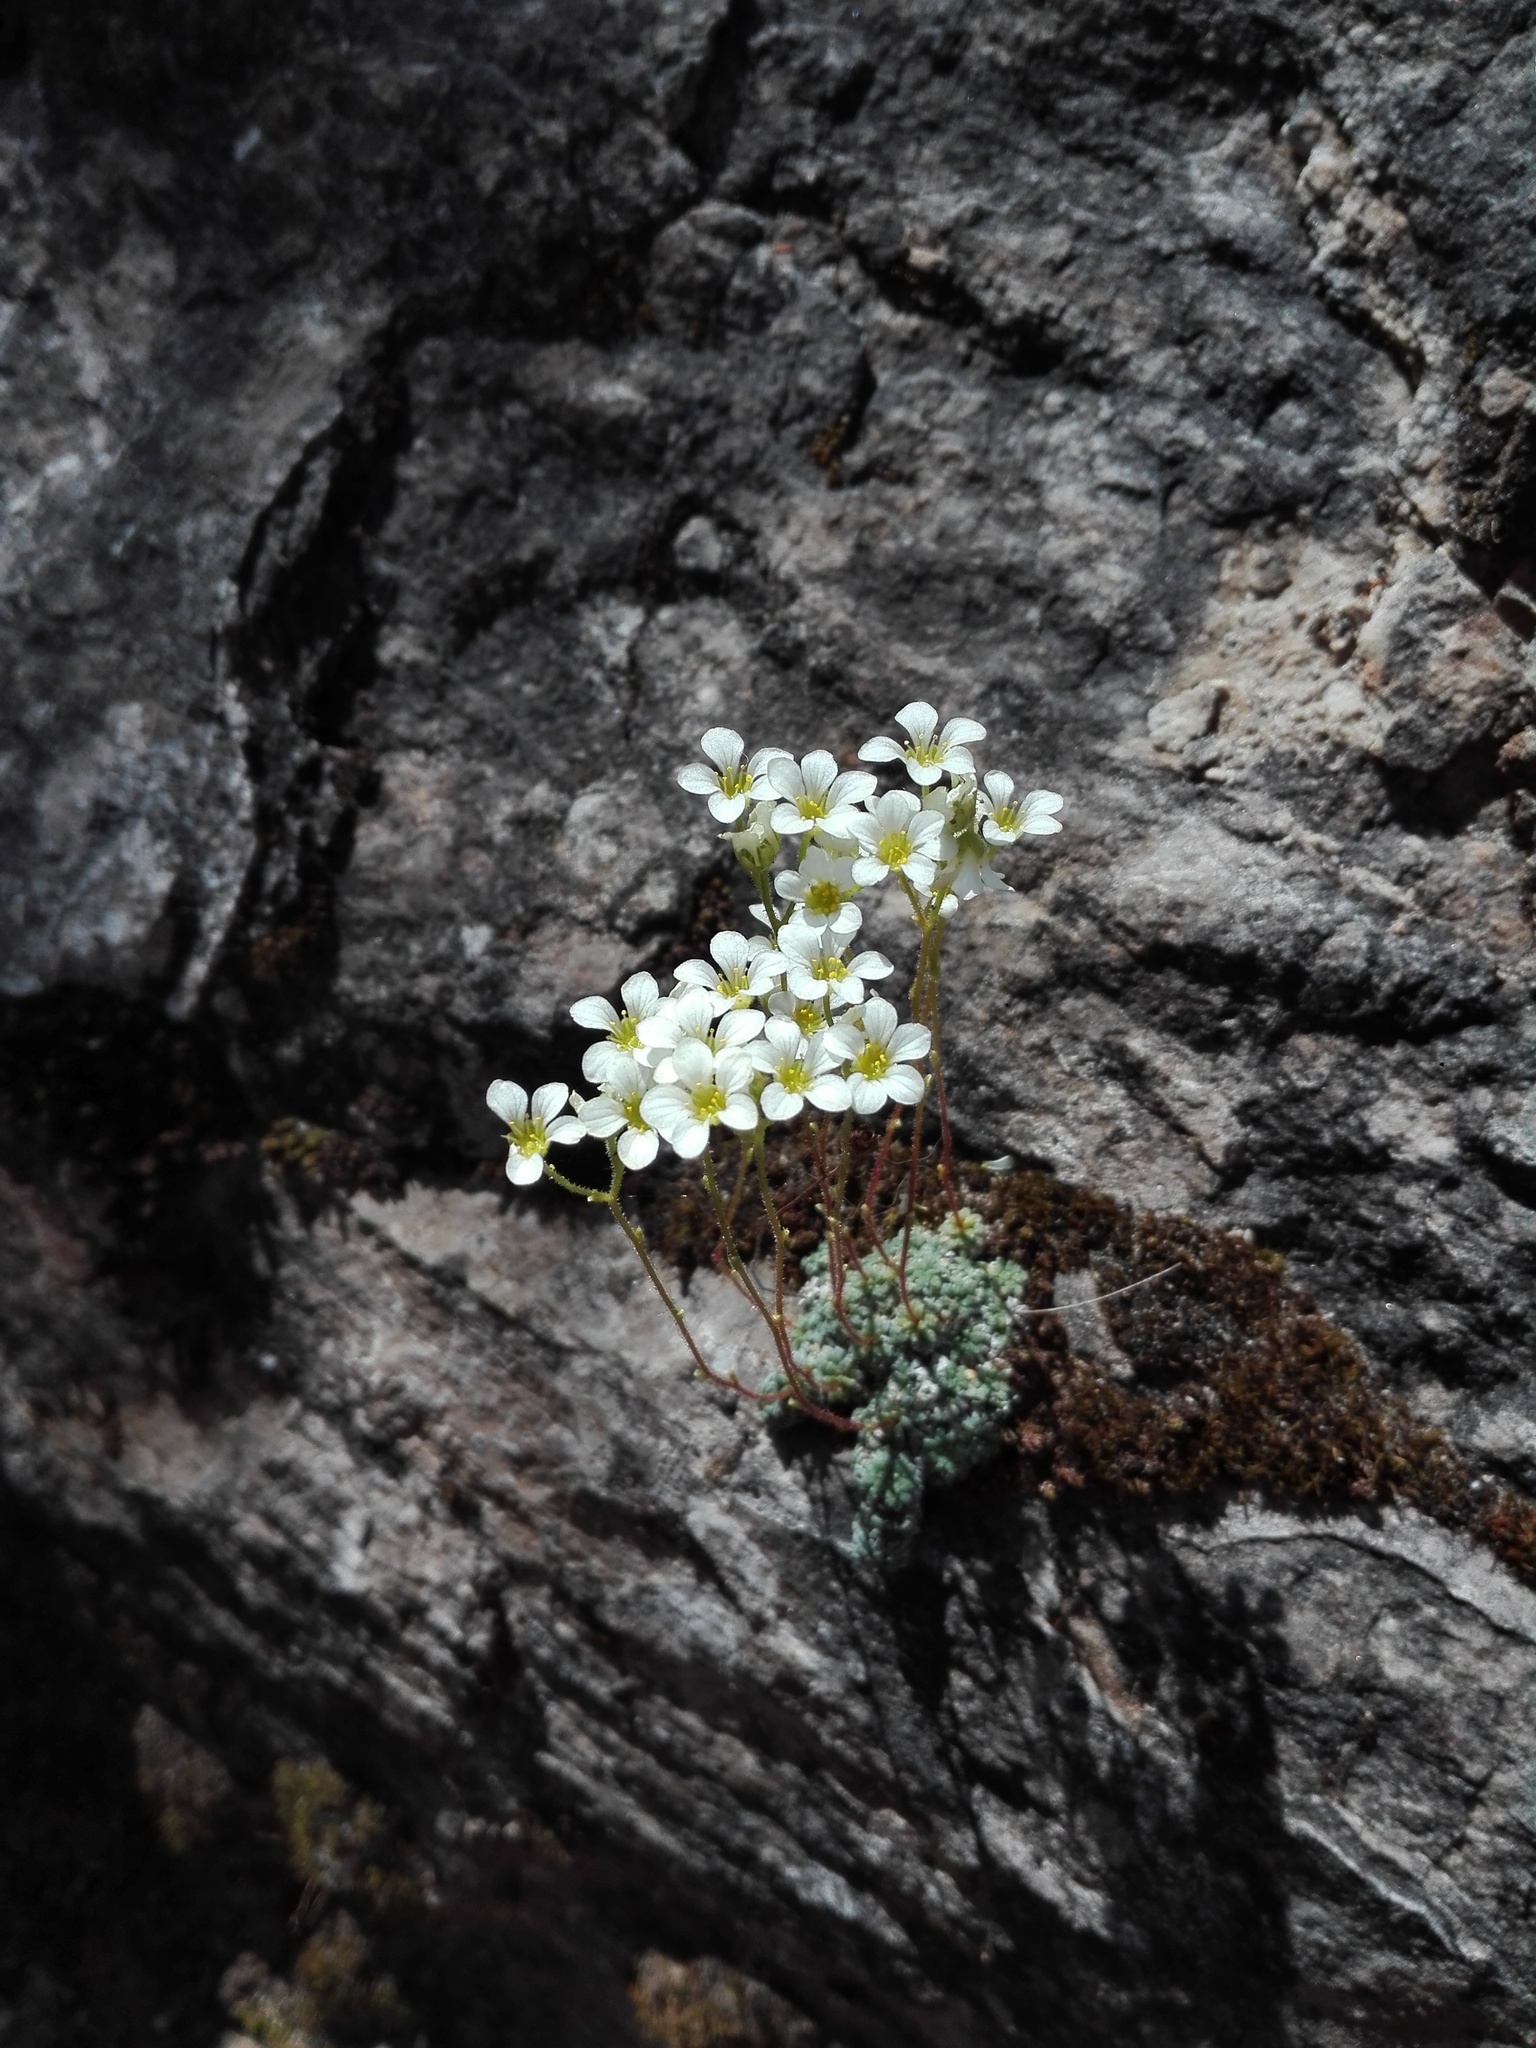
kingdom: Plantae
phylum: Tracheophyta
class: Magnoliopsida
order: Saxifragales
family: Saxifragaceae
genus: Saxifraga
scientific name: Saxifraga caesia
